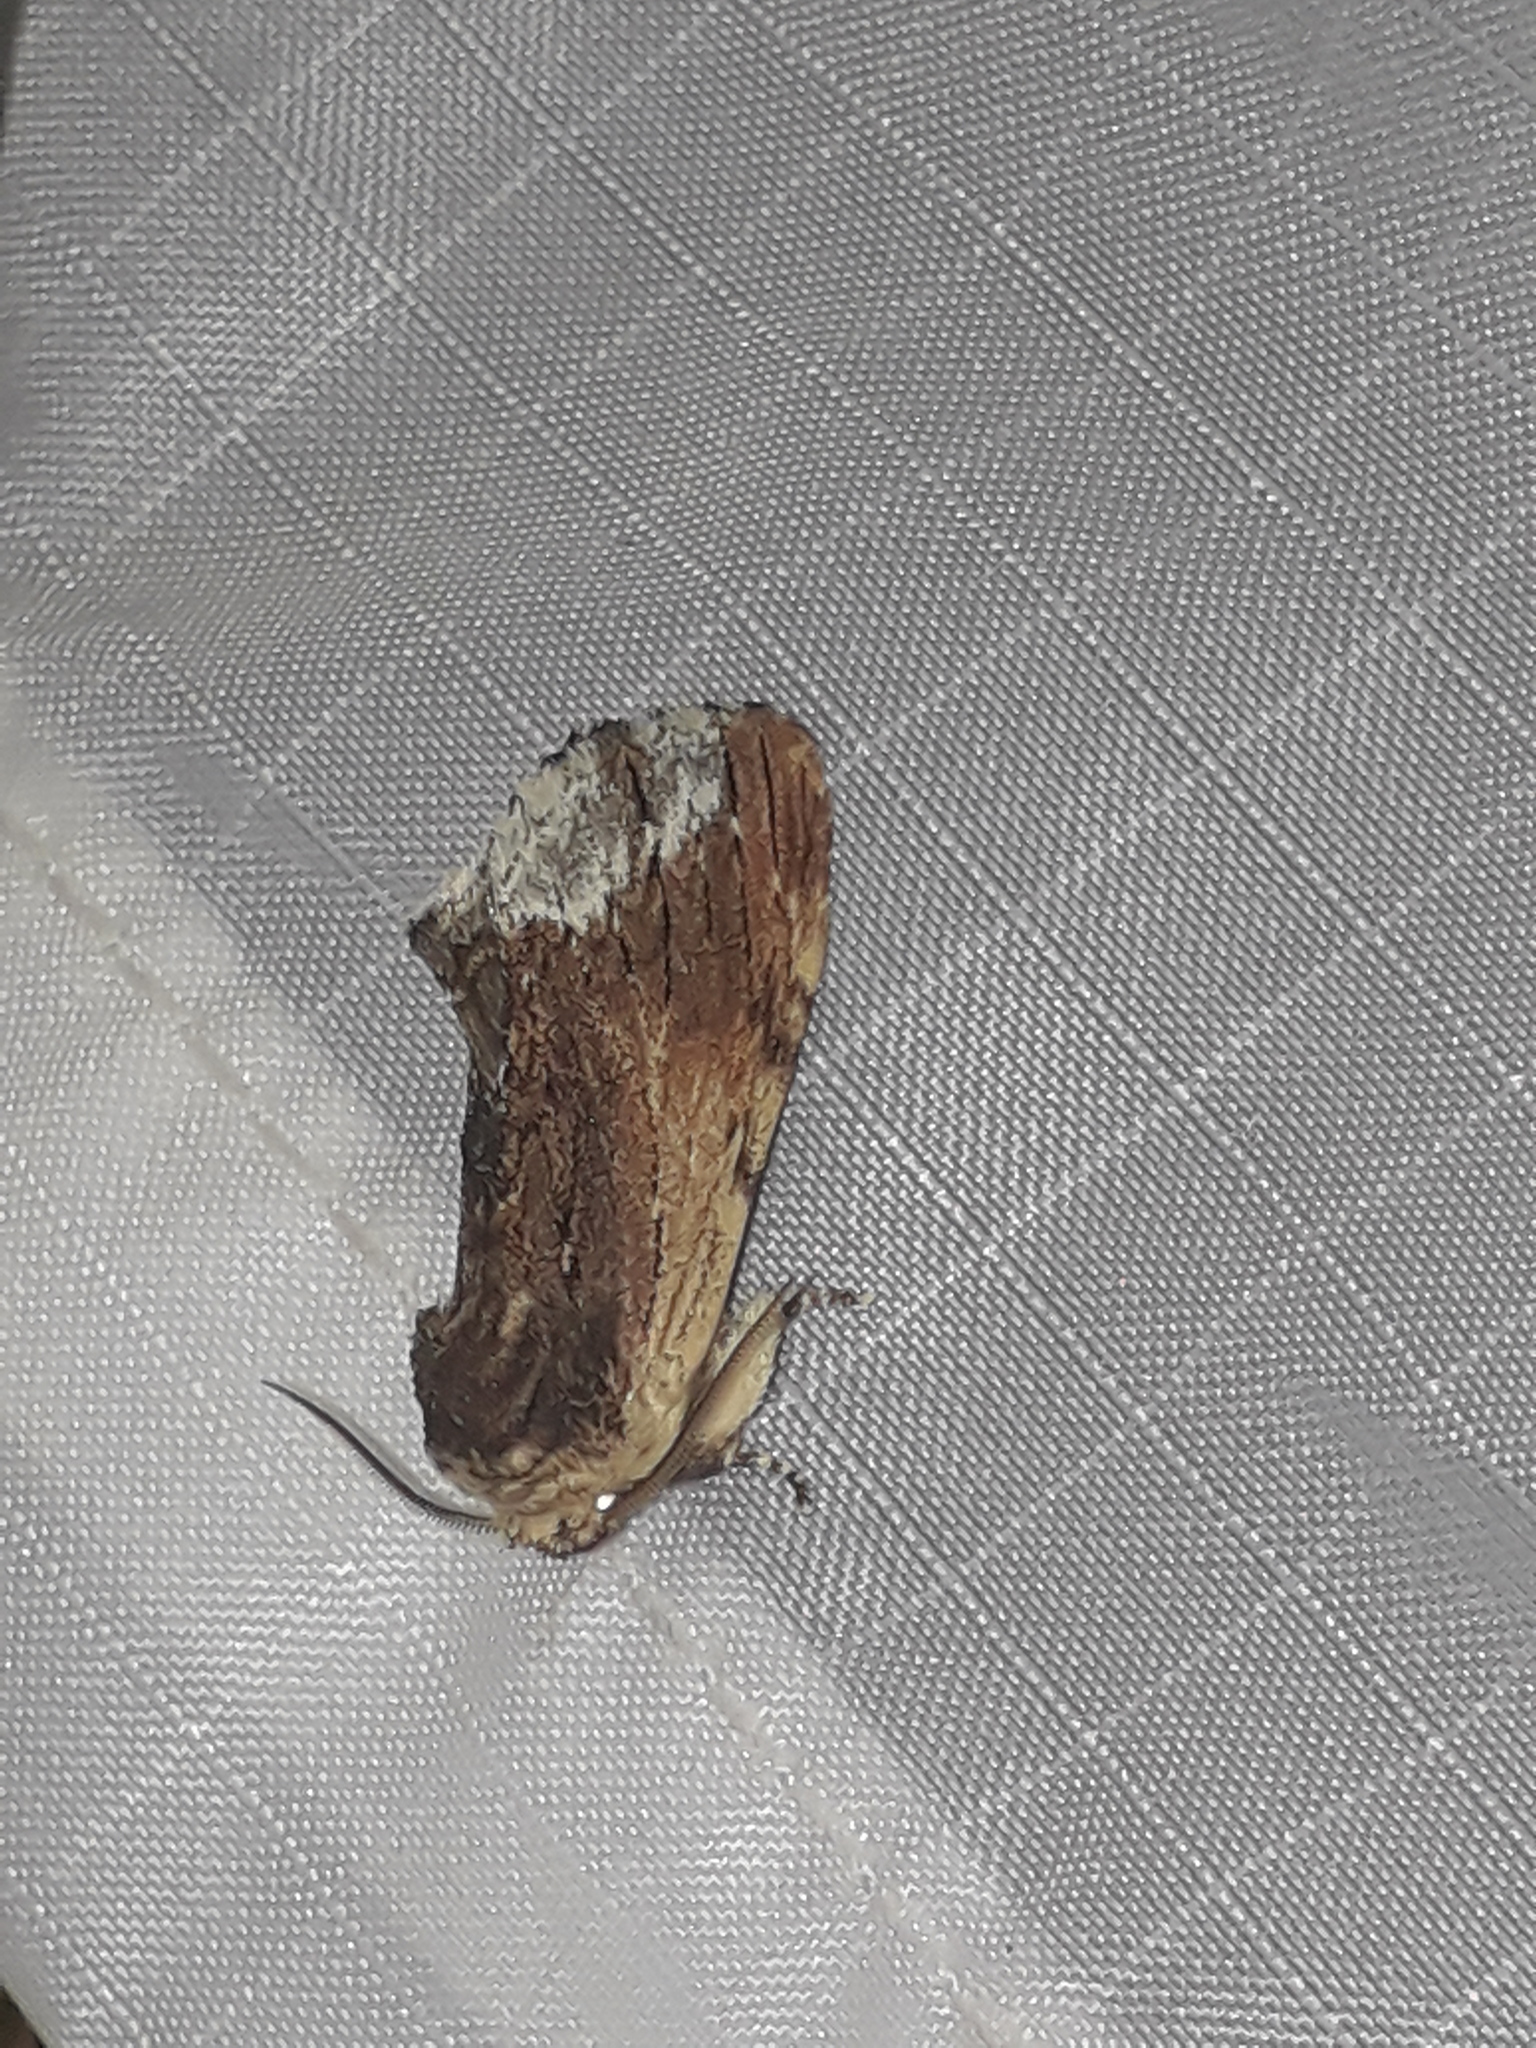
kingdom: Animalia
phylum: Arthropoda
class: Insecta
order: Lepidoptera
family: Notodontidae
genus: Ptilodon
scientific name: Ptilodon cucullina
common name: Maple prominent
